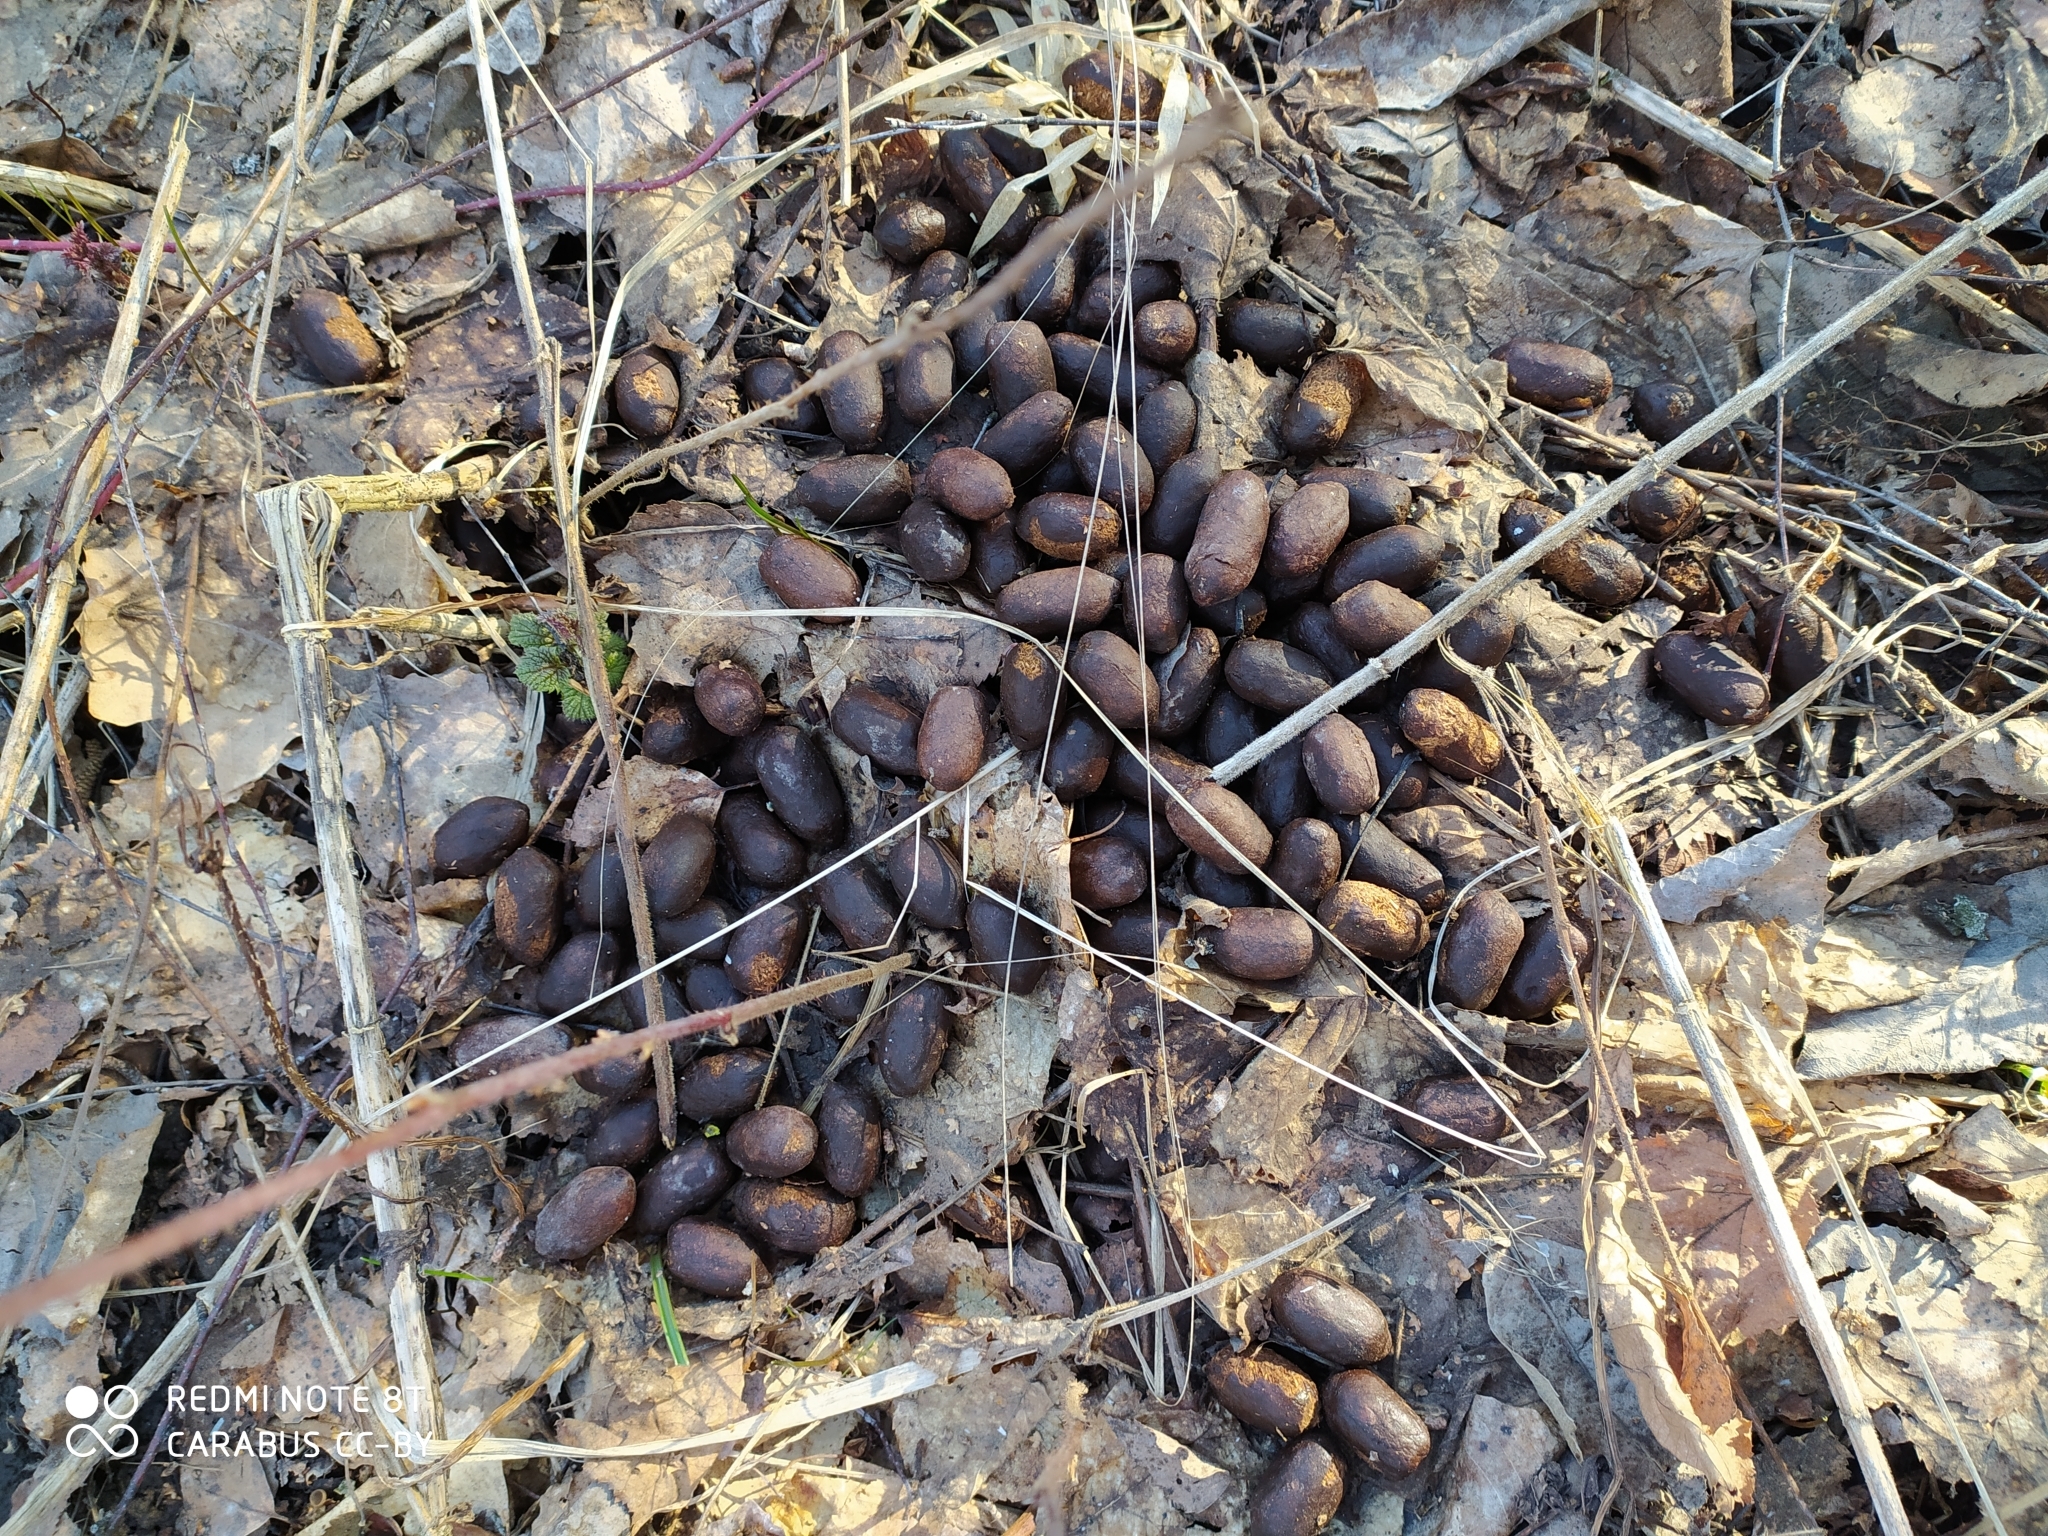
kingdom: Animalia
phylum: Chordata
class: Mammalia
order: Artiodactyla
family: Cervidae
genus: Alces
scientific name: Alces alces
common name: Moose
